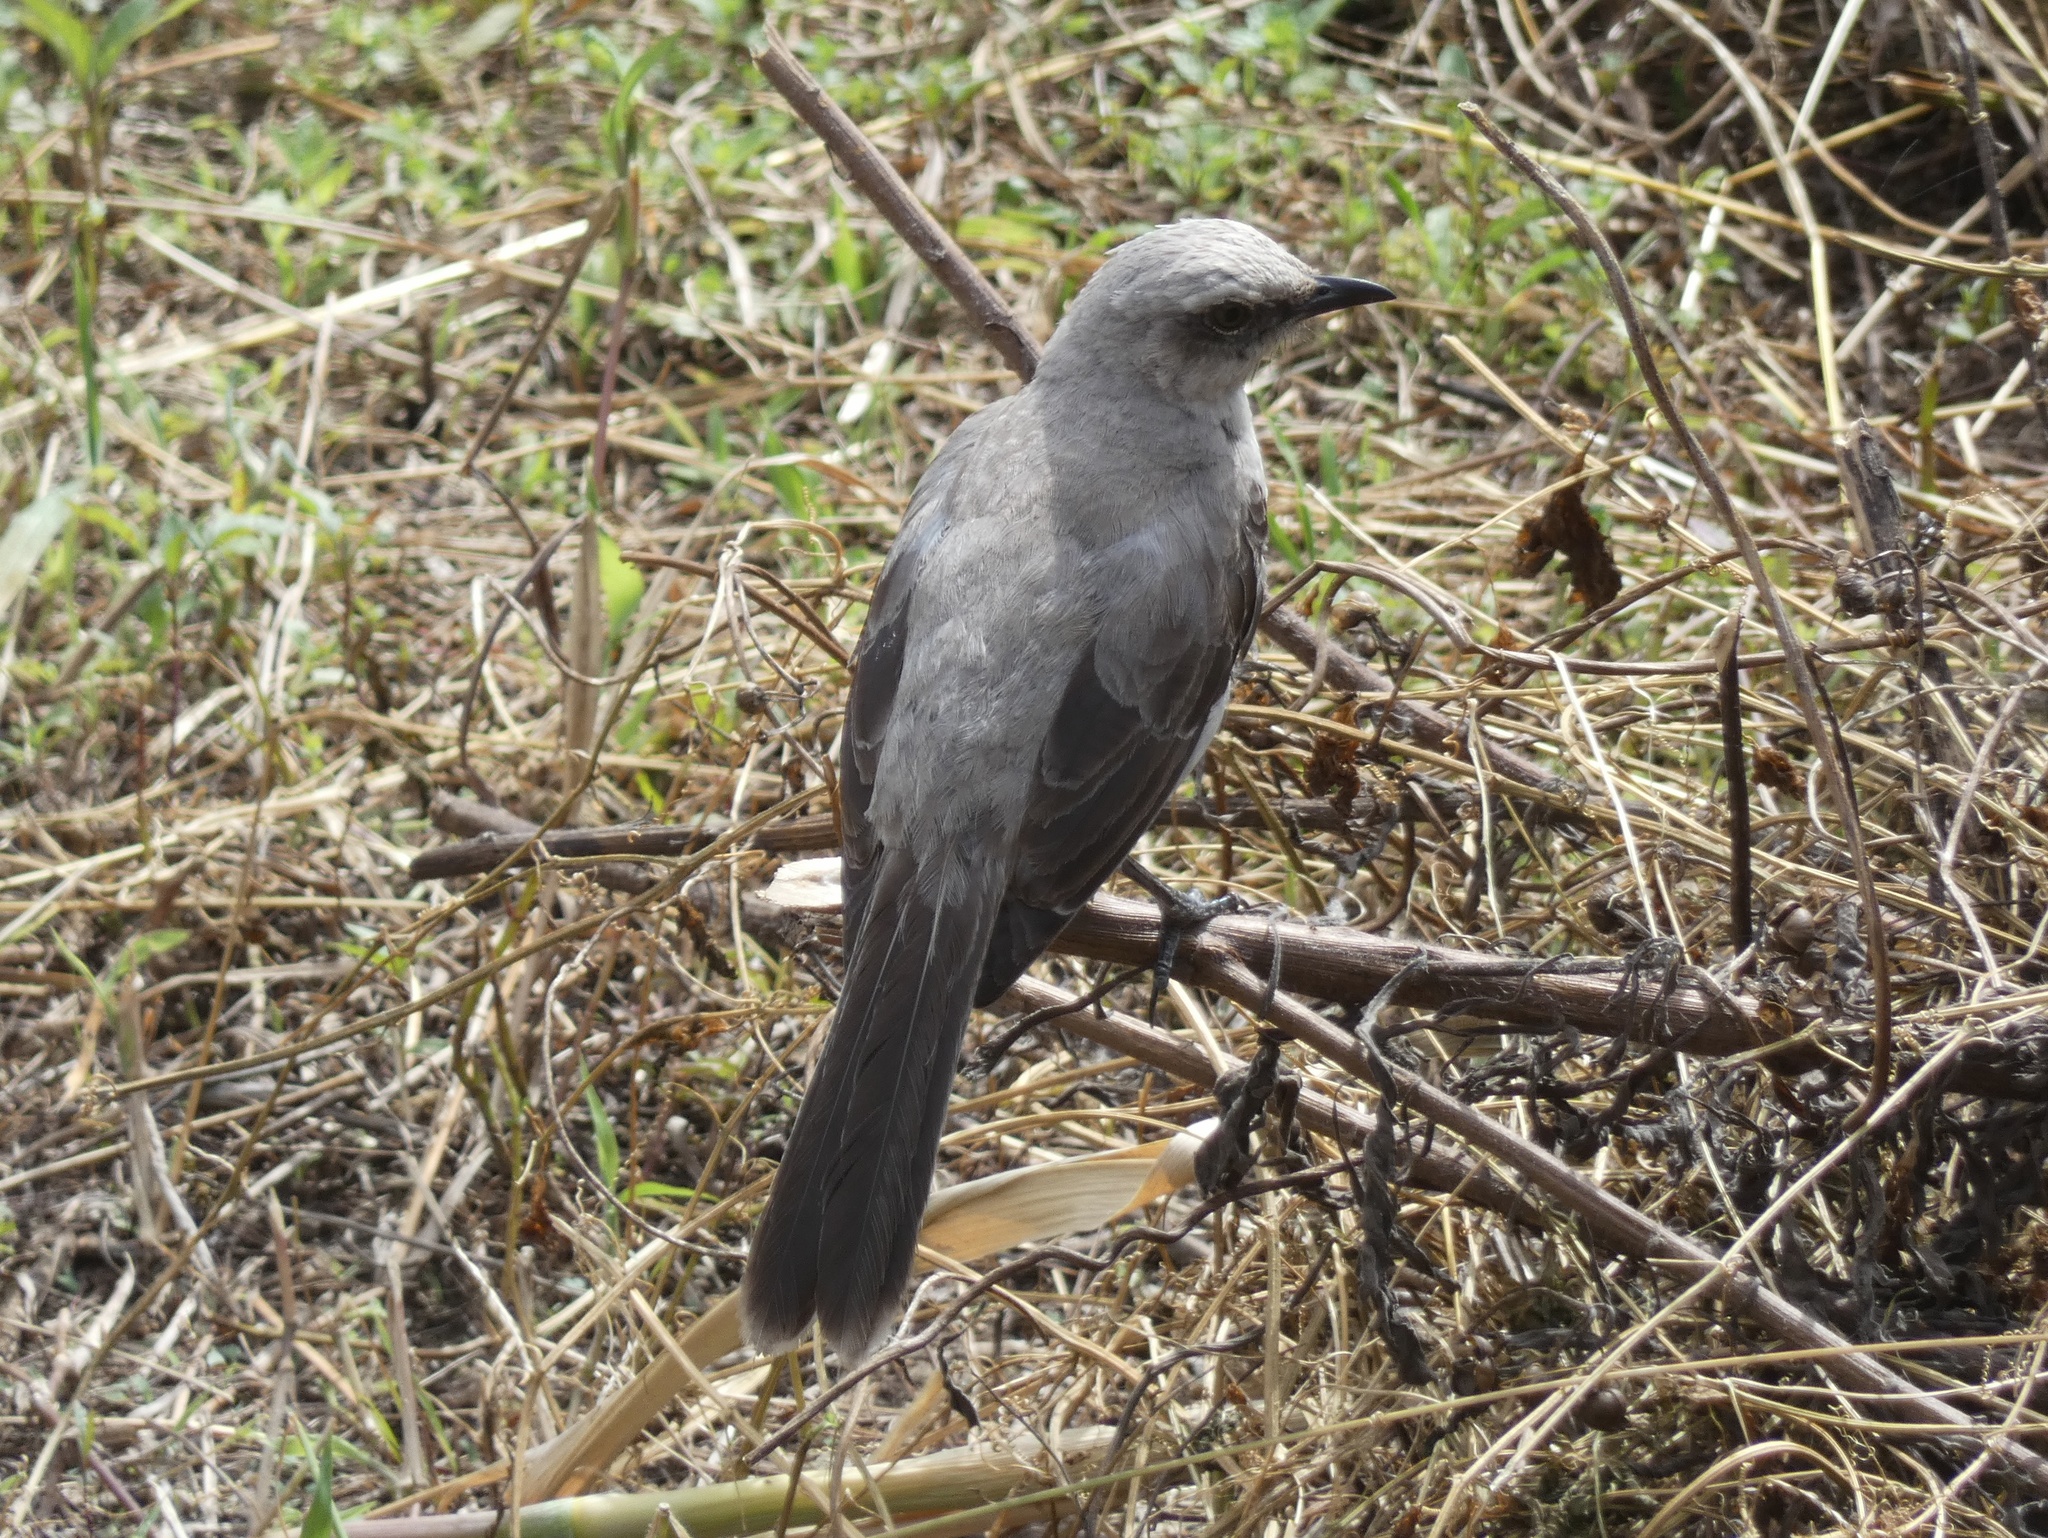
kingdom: Animalia
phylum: Chordata
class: Aves
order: Passeriformes
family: Mimidae
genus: Mimus
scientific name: Mimus gilvus
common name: Tropical mockingbird
